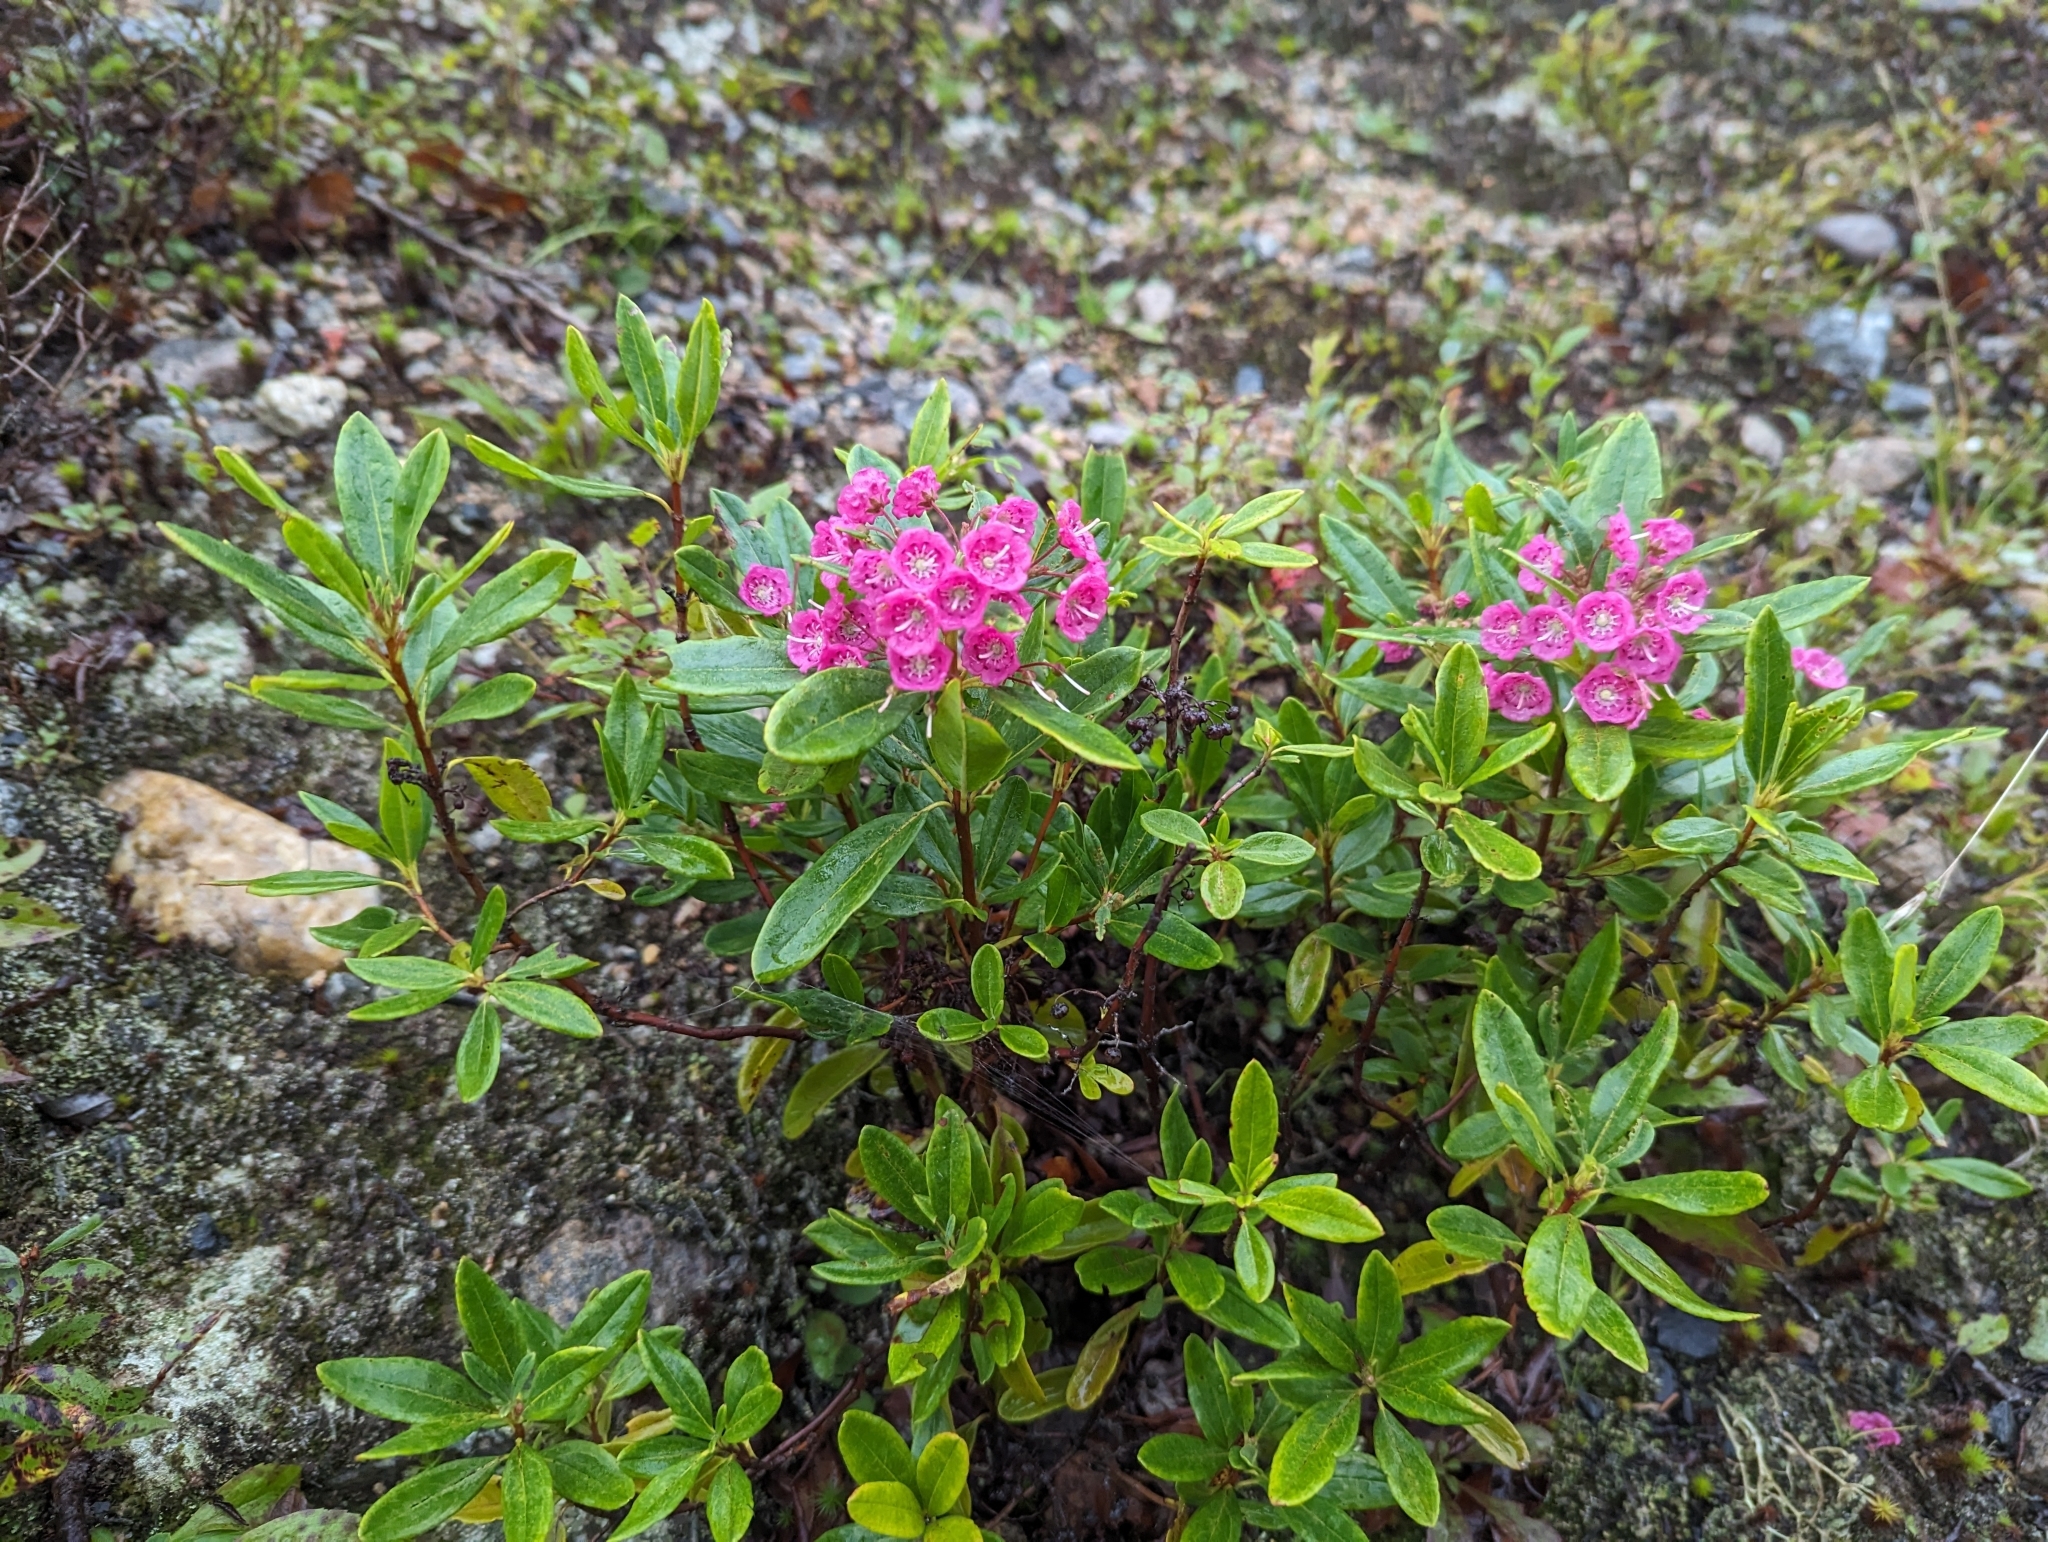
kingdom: Plantae
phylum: Tracheophyta
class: Magnoliopsida
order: Ericales
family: Ericaceae
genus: Kalmia
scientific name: Kalmia angustifolia
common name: Sheep-laurel
